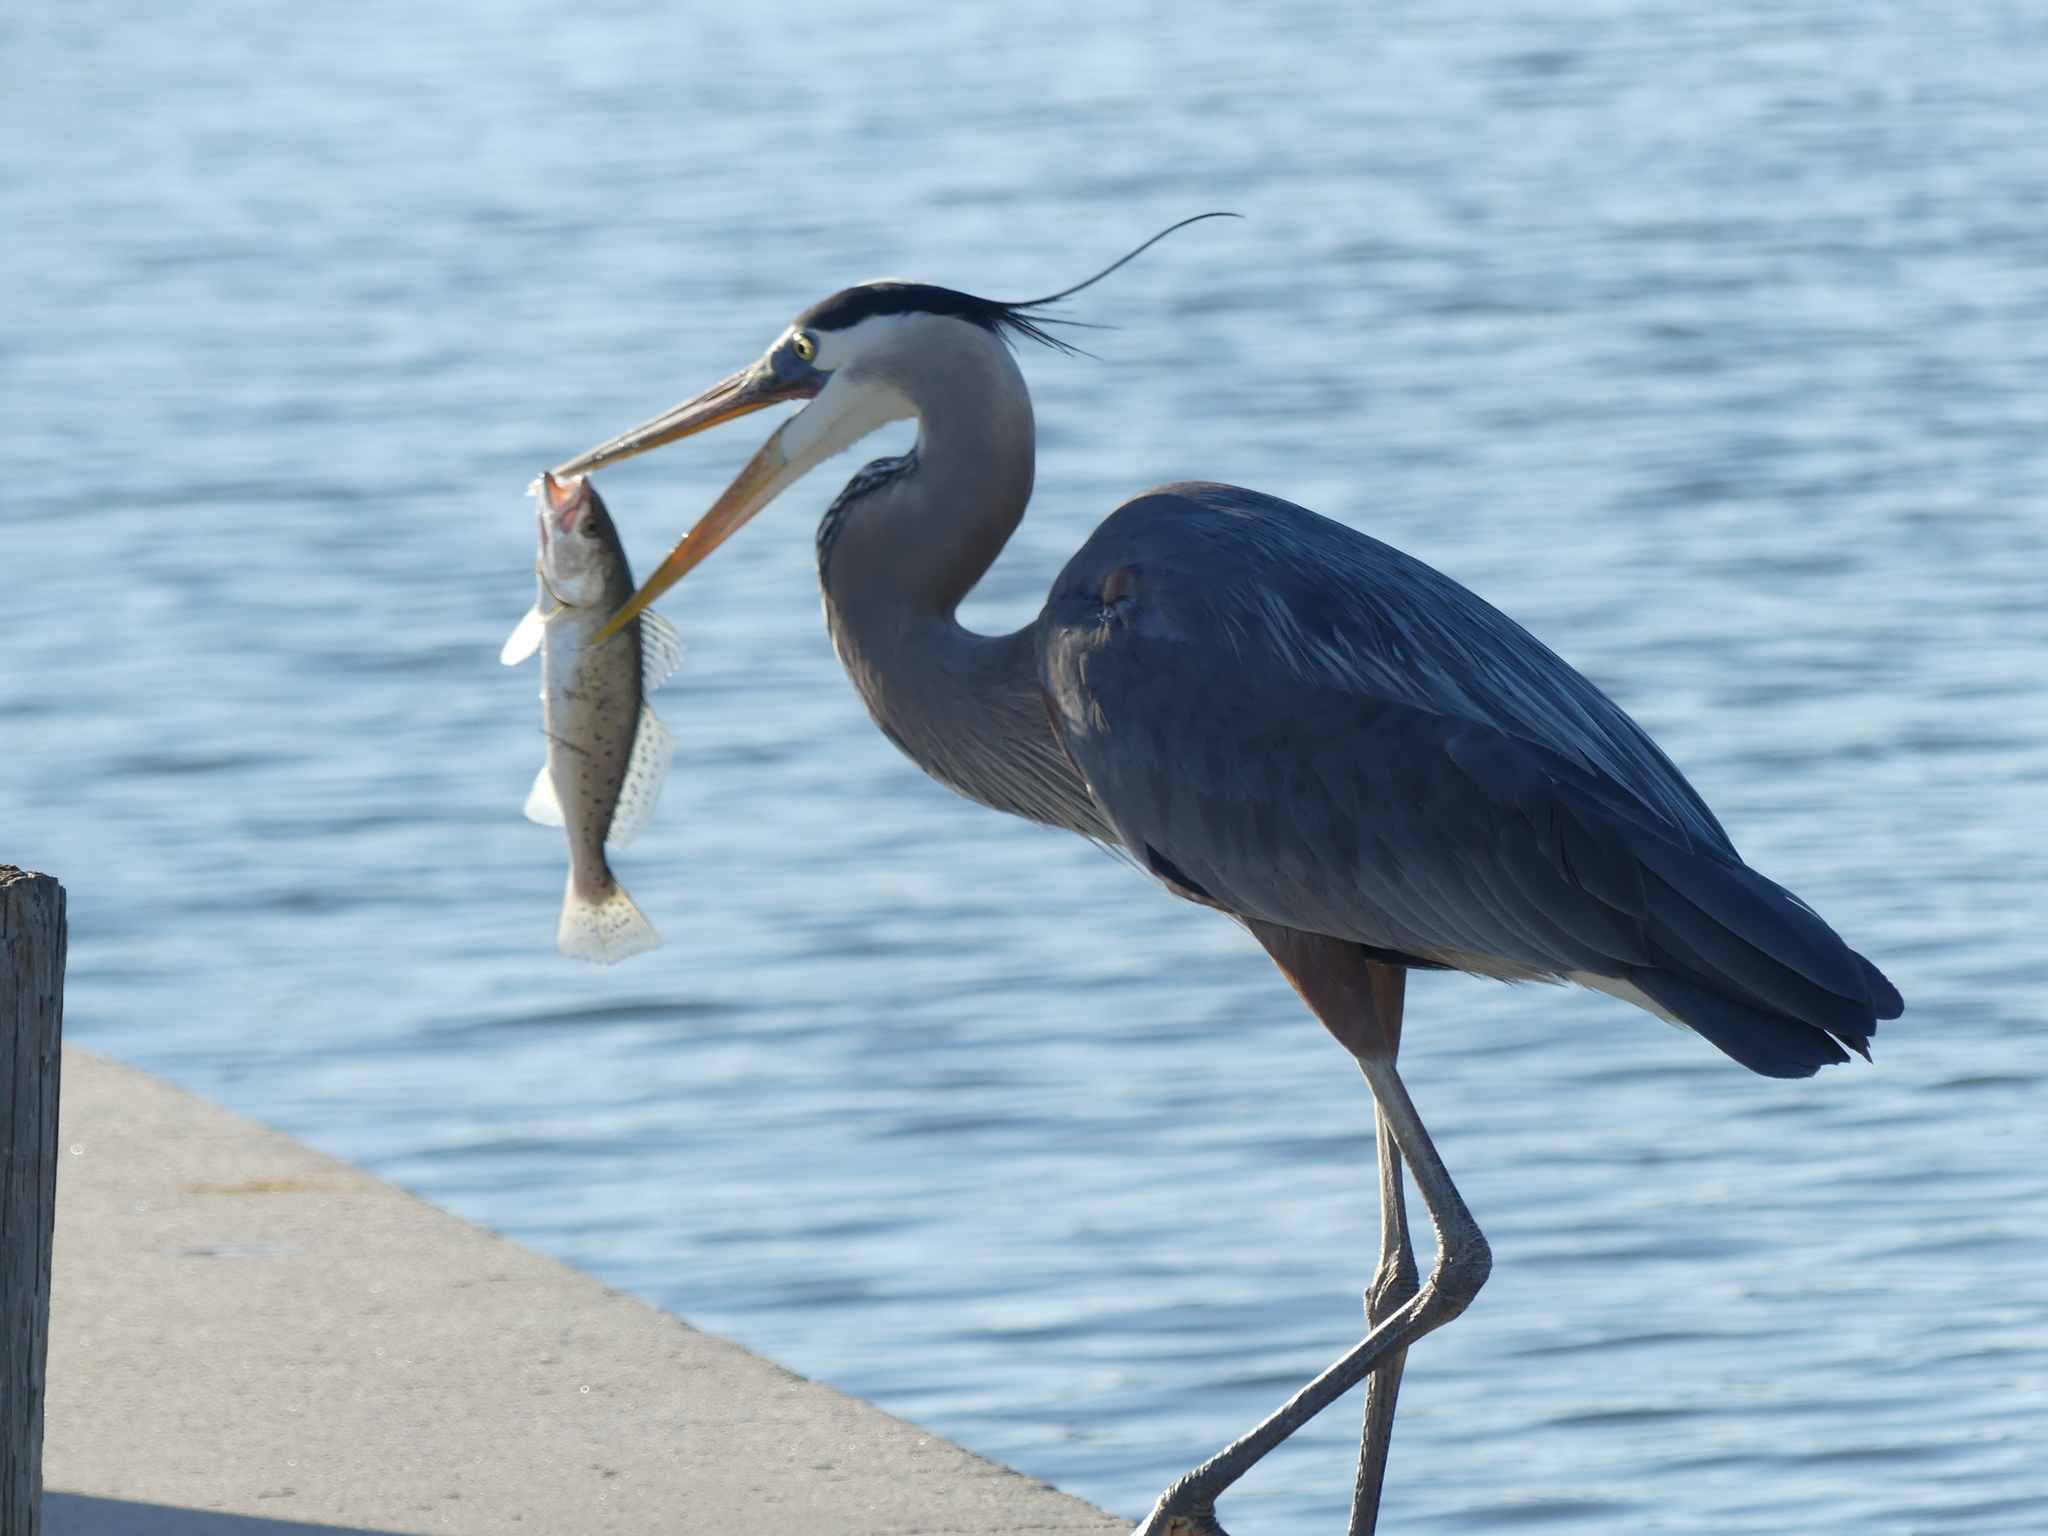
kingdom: Animalia
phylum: Chordata
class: Aves
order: Pelecaniformes
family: Ardeidae
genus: Ardea
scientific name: Ardea herodias
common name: Great blue heron
